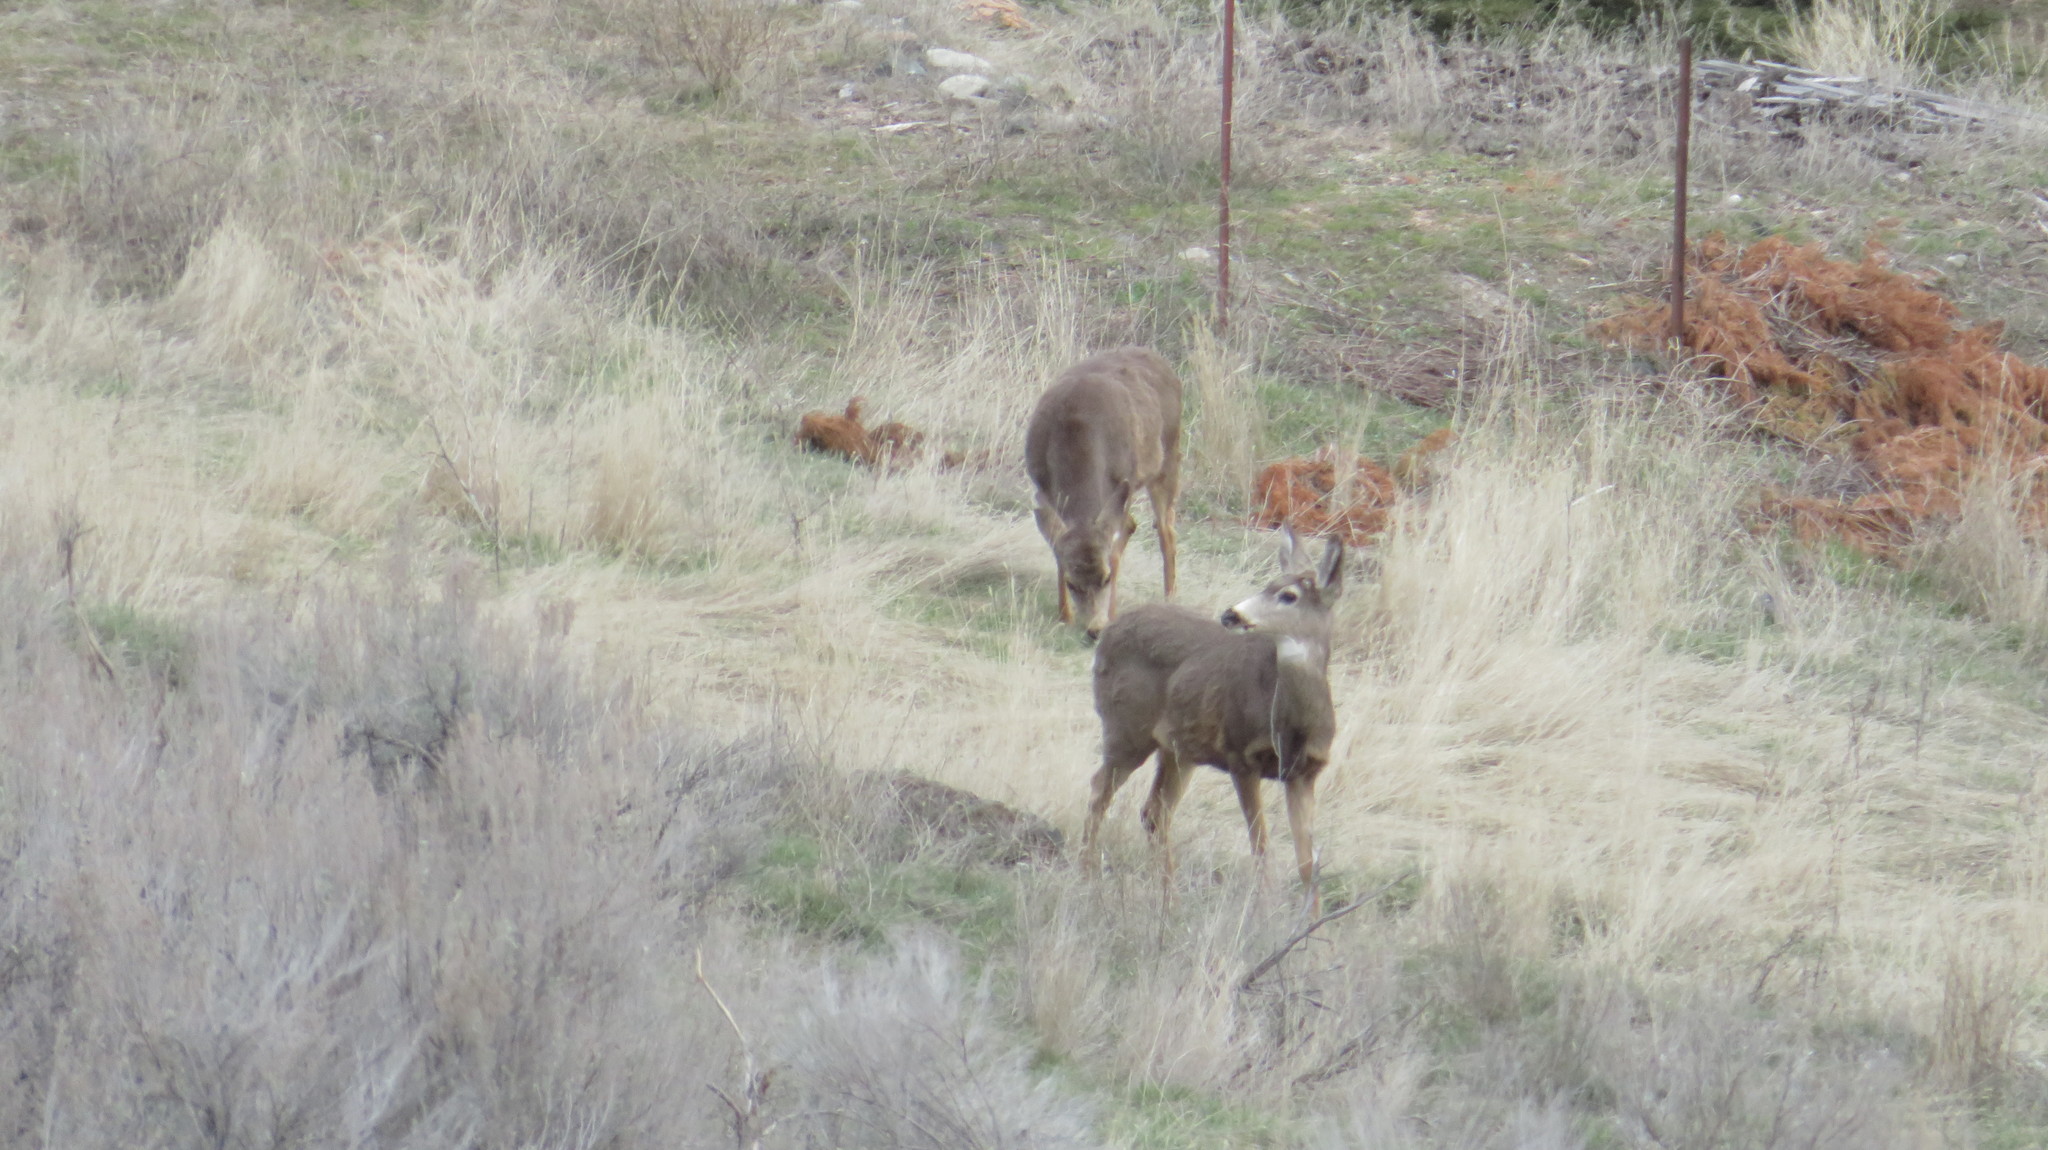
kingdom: Animalia
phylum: Chordata
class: Mammalia
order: Artiodactyla
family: Cervidae
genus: Odocoileus
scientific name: Odocoileus hemionus
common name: Mule deer
